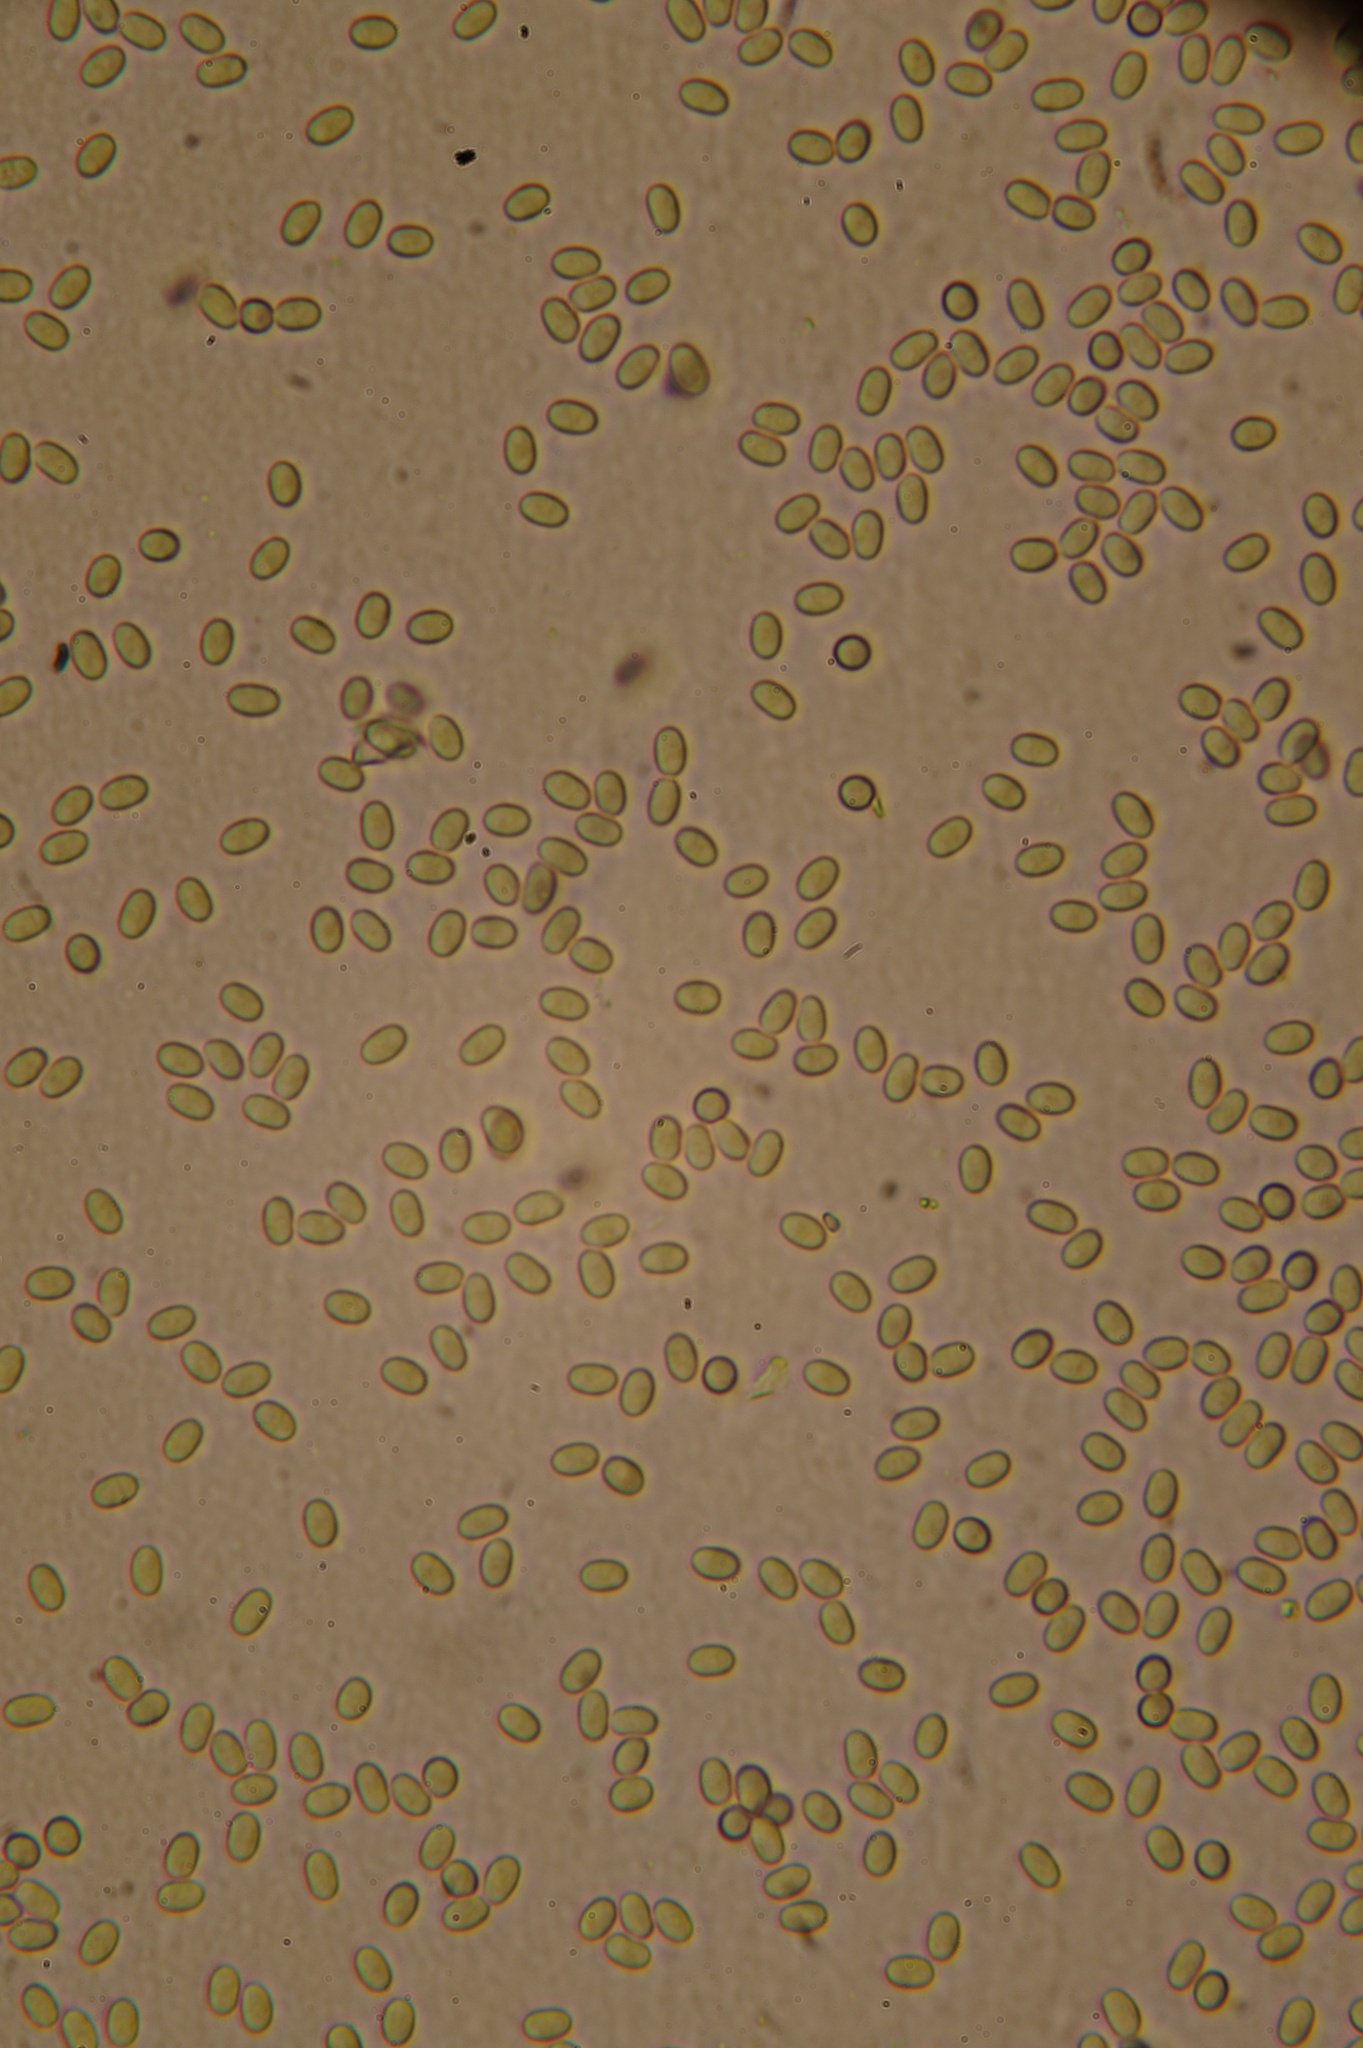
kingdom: Fungi
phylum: Mucoromycota
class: Mucoromycetes
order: Mucorales
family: Pilobolaceae
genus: Pilobolus
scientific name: Pilobolus umbonatus
